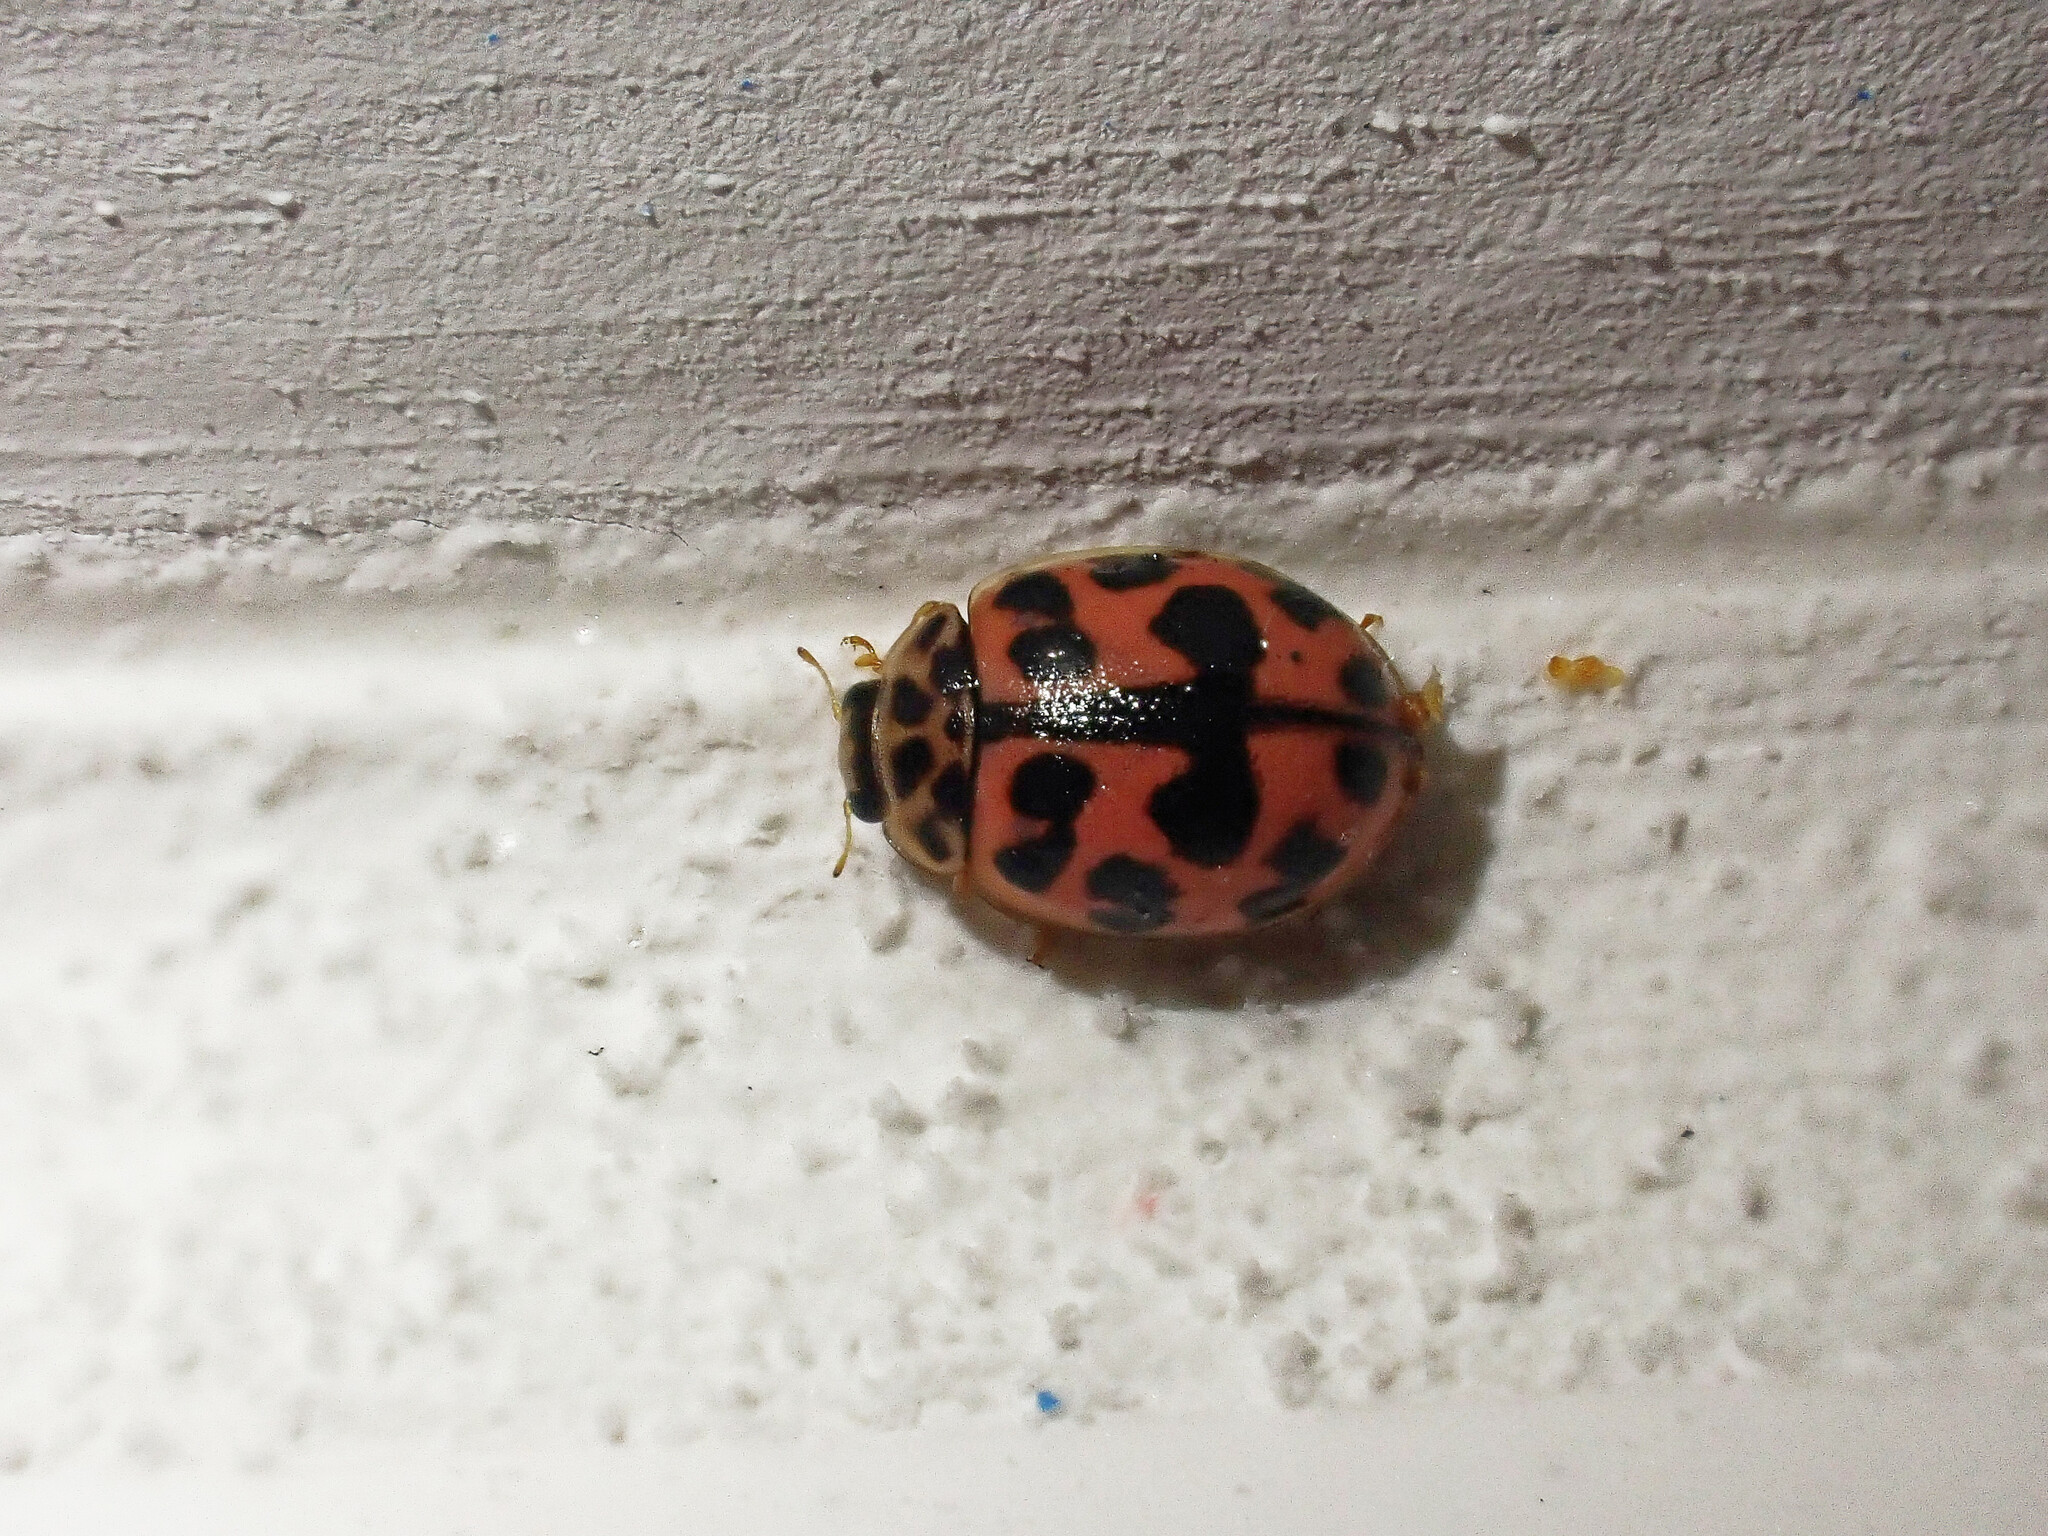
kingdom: Animalia
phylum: Arthropoda
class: Insecta
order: Coleoptera
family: Coccinellidae
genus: Oenopia
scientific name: Oenopia conglobata
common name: Ladybird beetle
